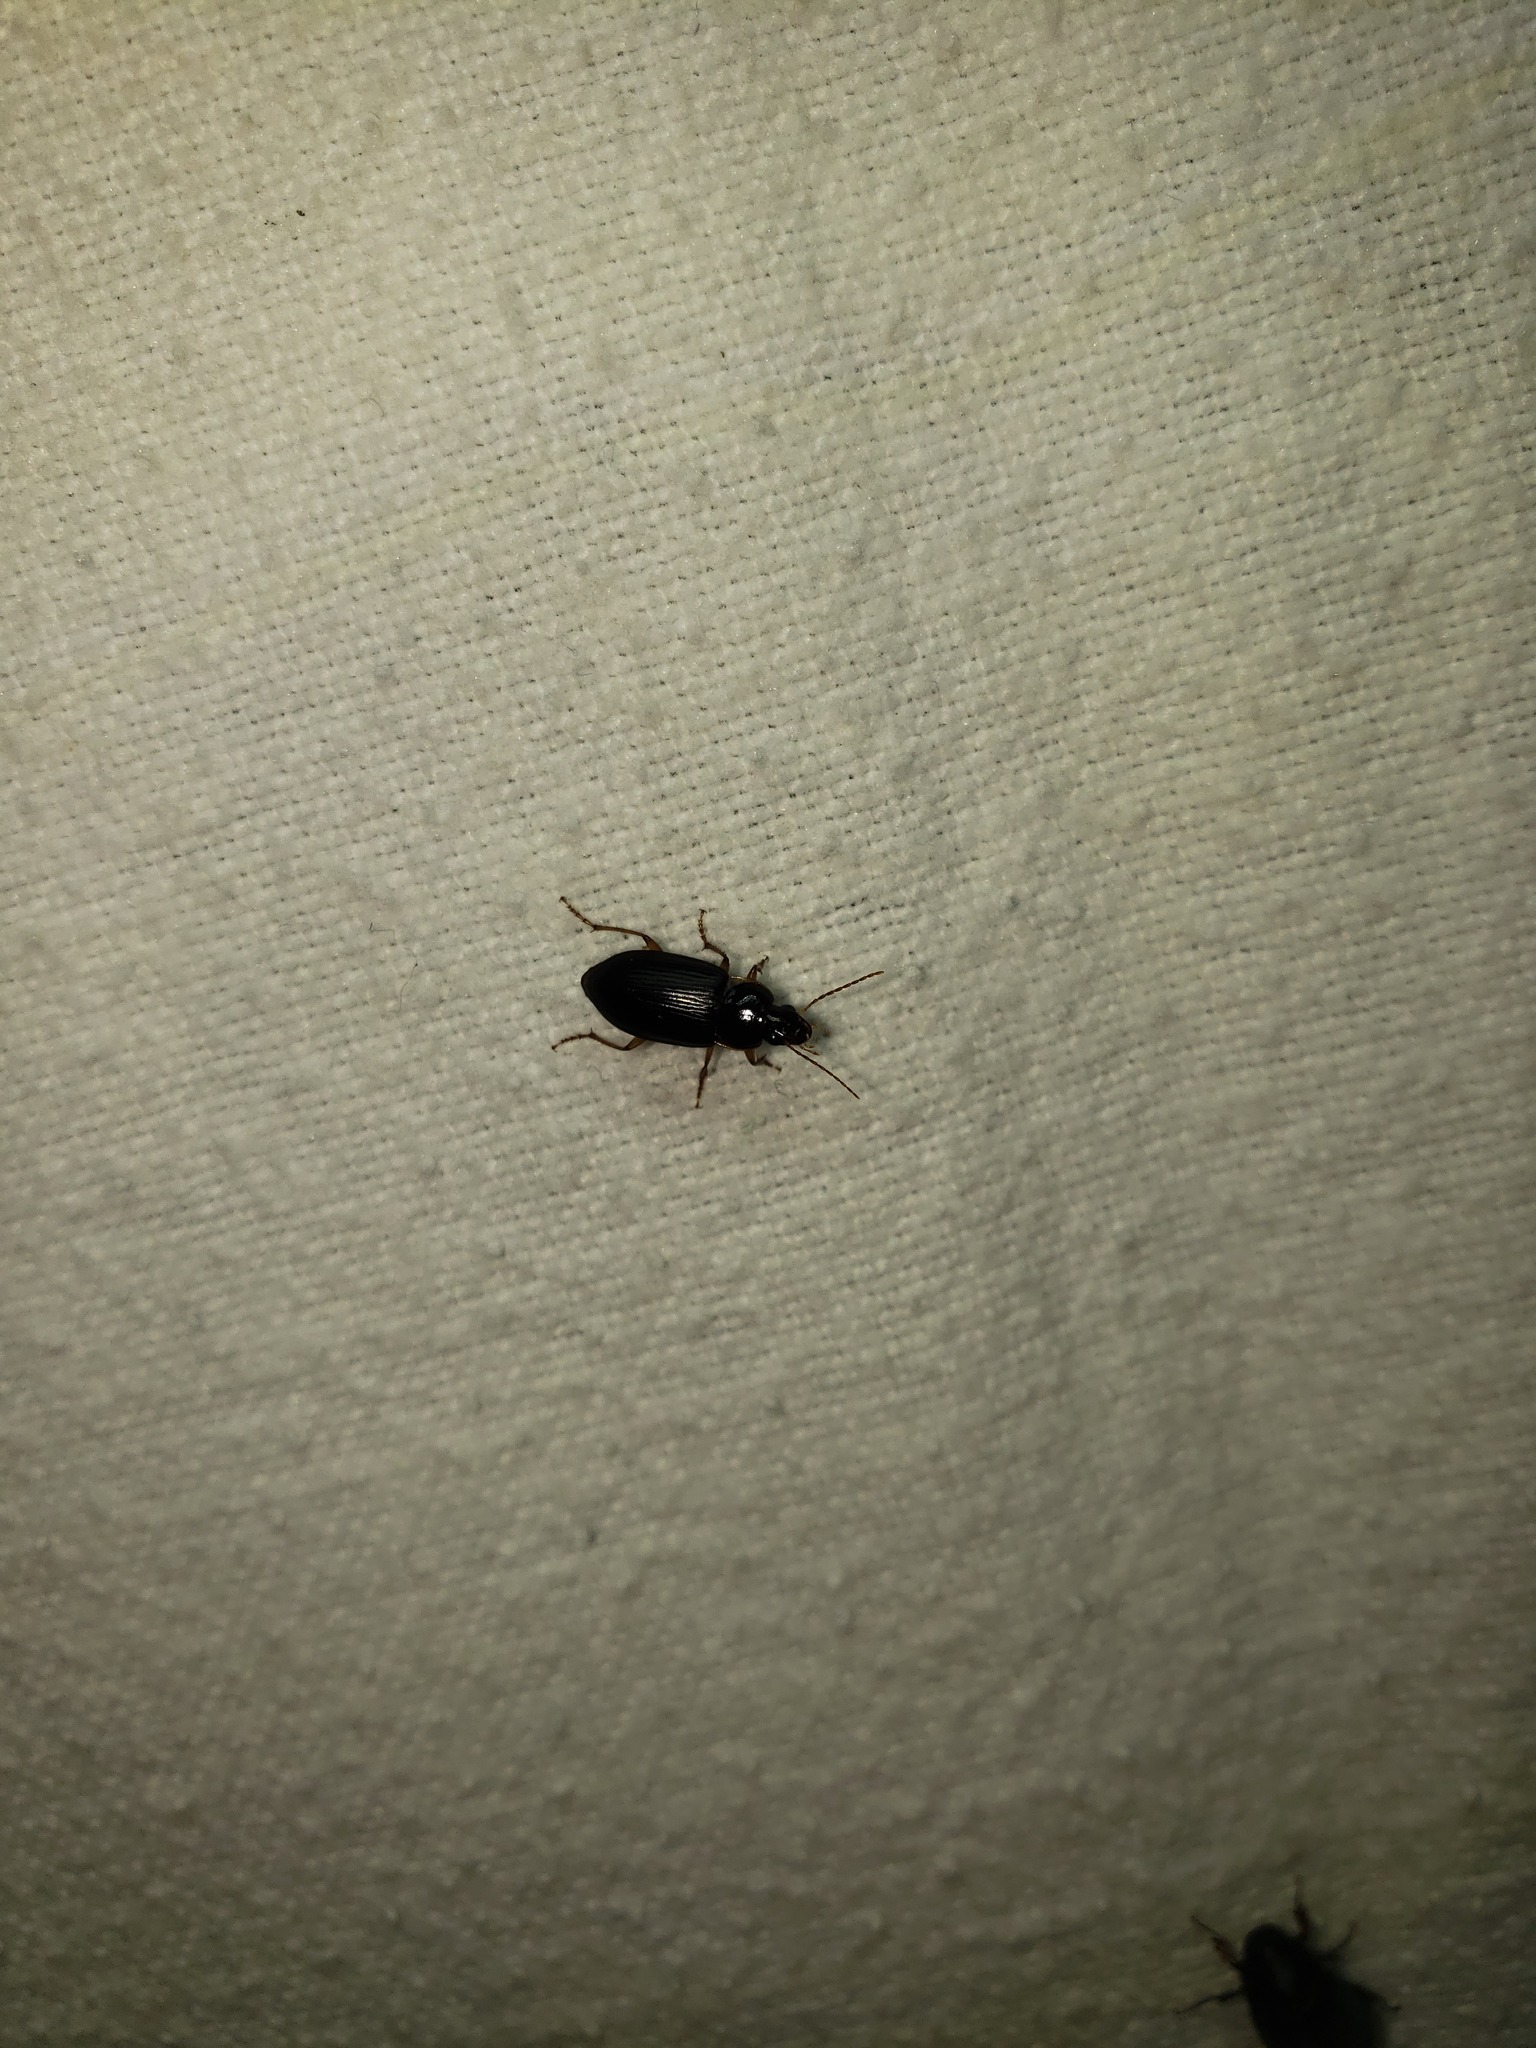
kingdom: Animalia
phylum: Arthropoda
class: Insecta
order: Coleoptera
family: Carabidae
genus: Notiobia
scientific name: Notiobia terminata
